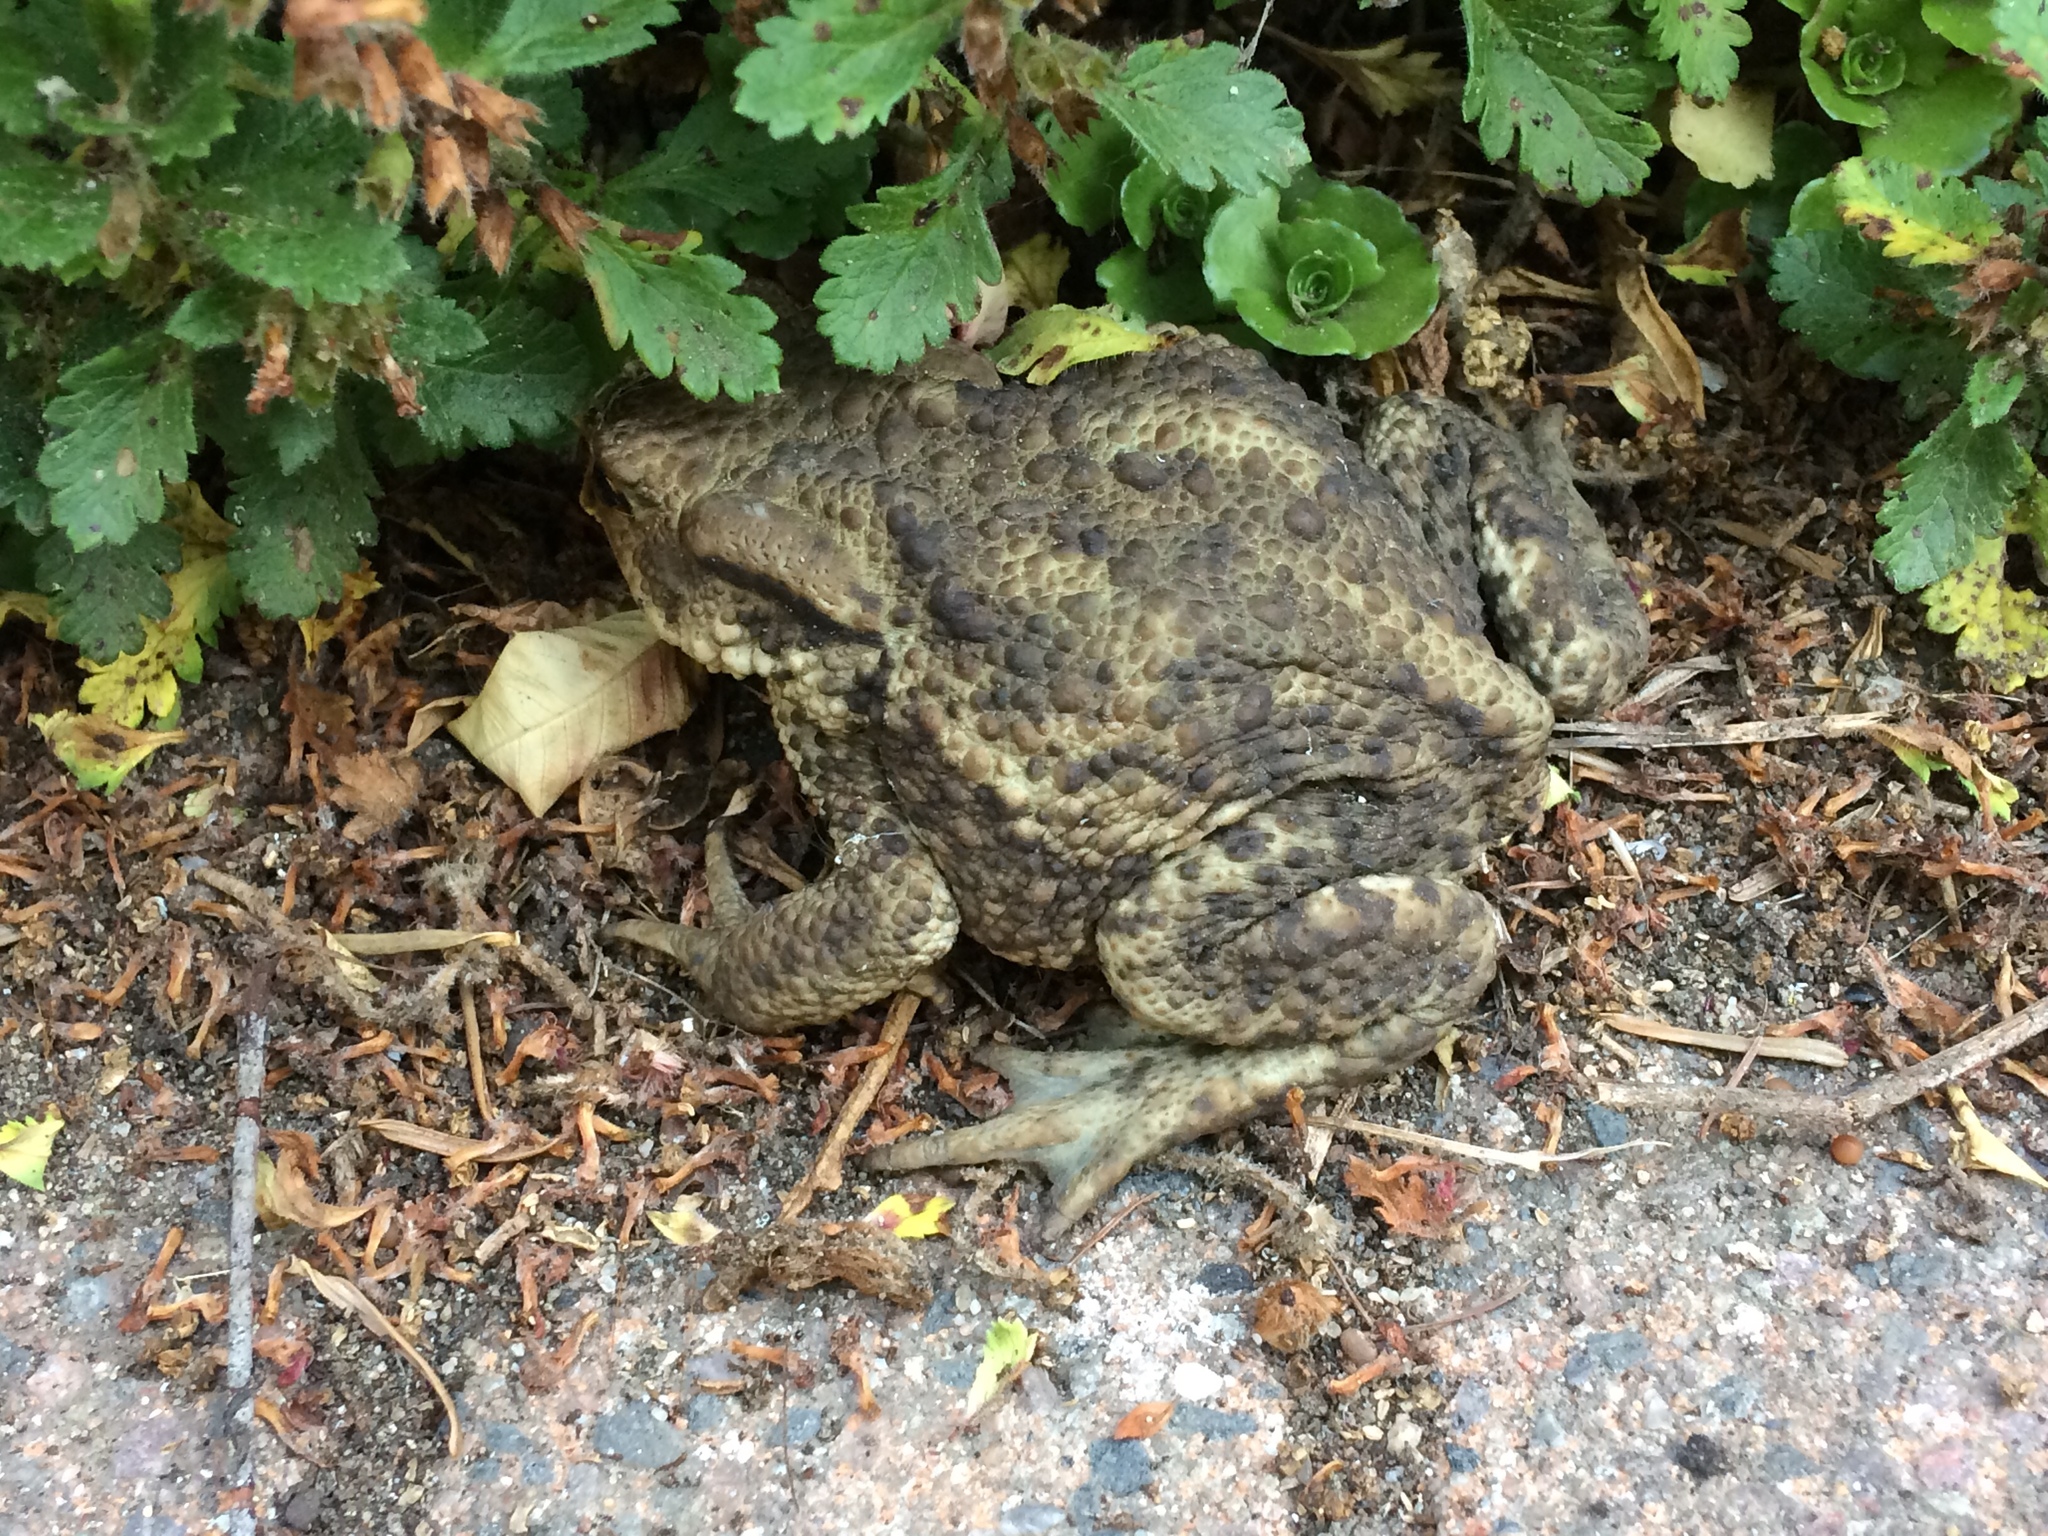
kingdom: Animalia
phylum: Chordata
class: Amphibia
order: Anura
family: Bufonidae
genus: Bufo
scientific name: Bufo bufo
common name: Common toad
